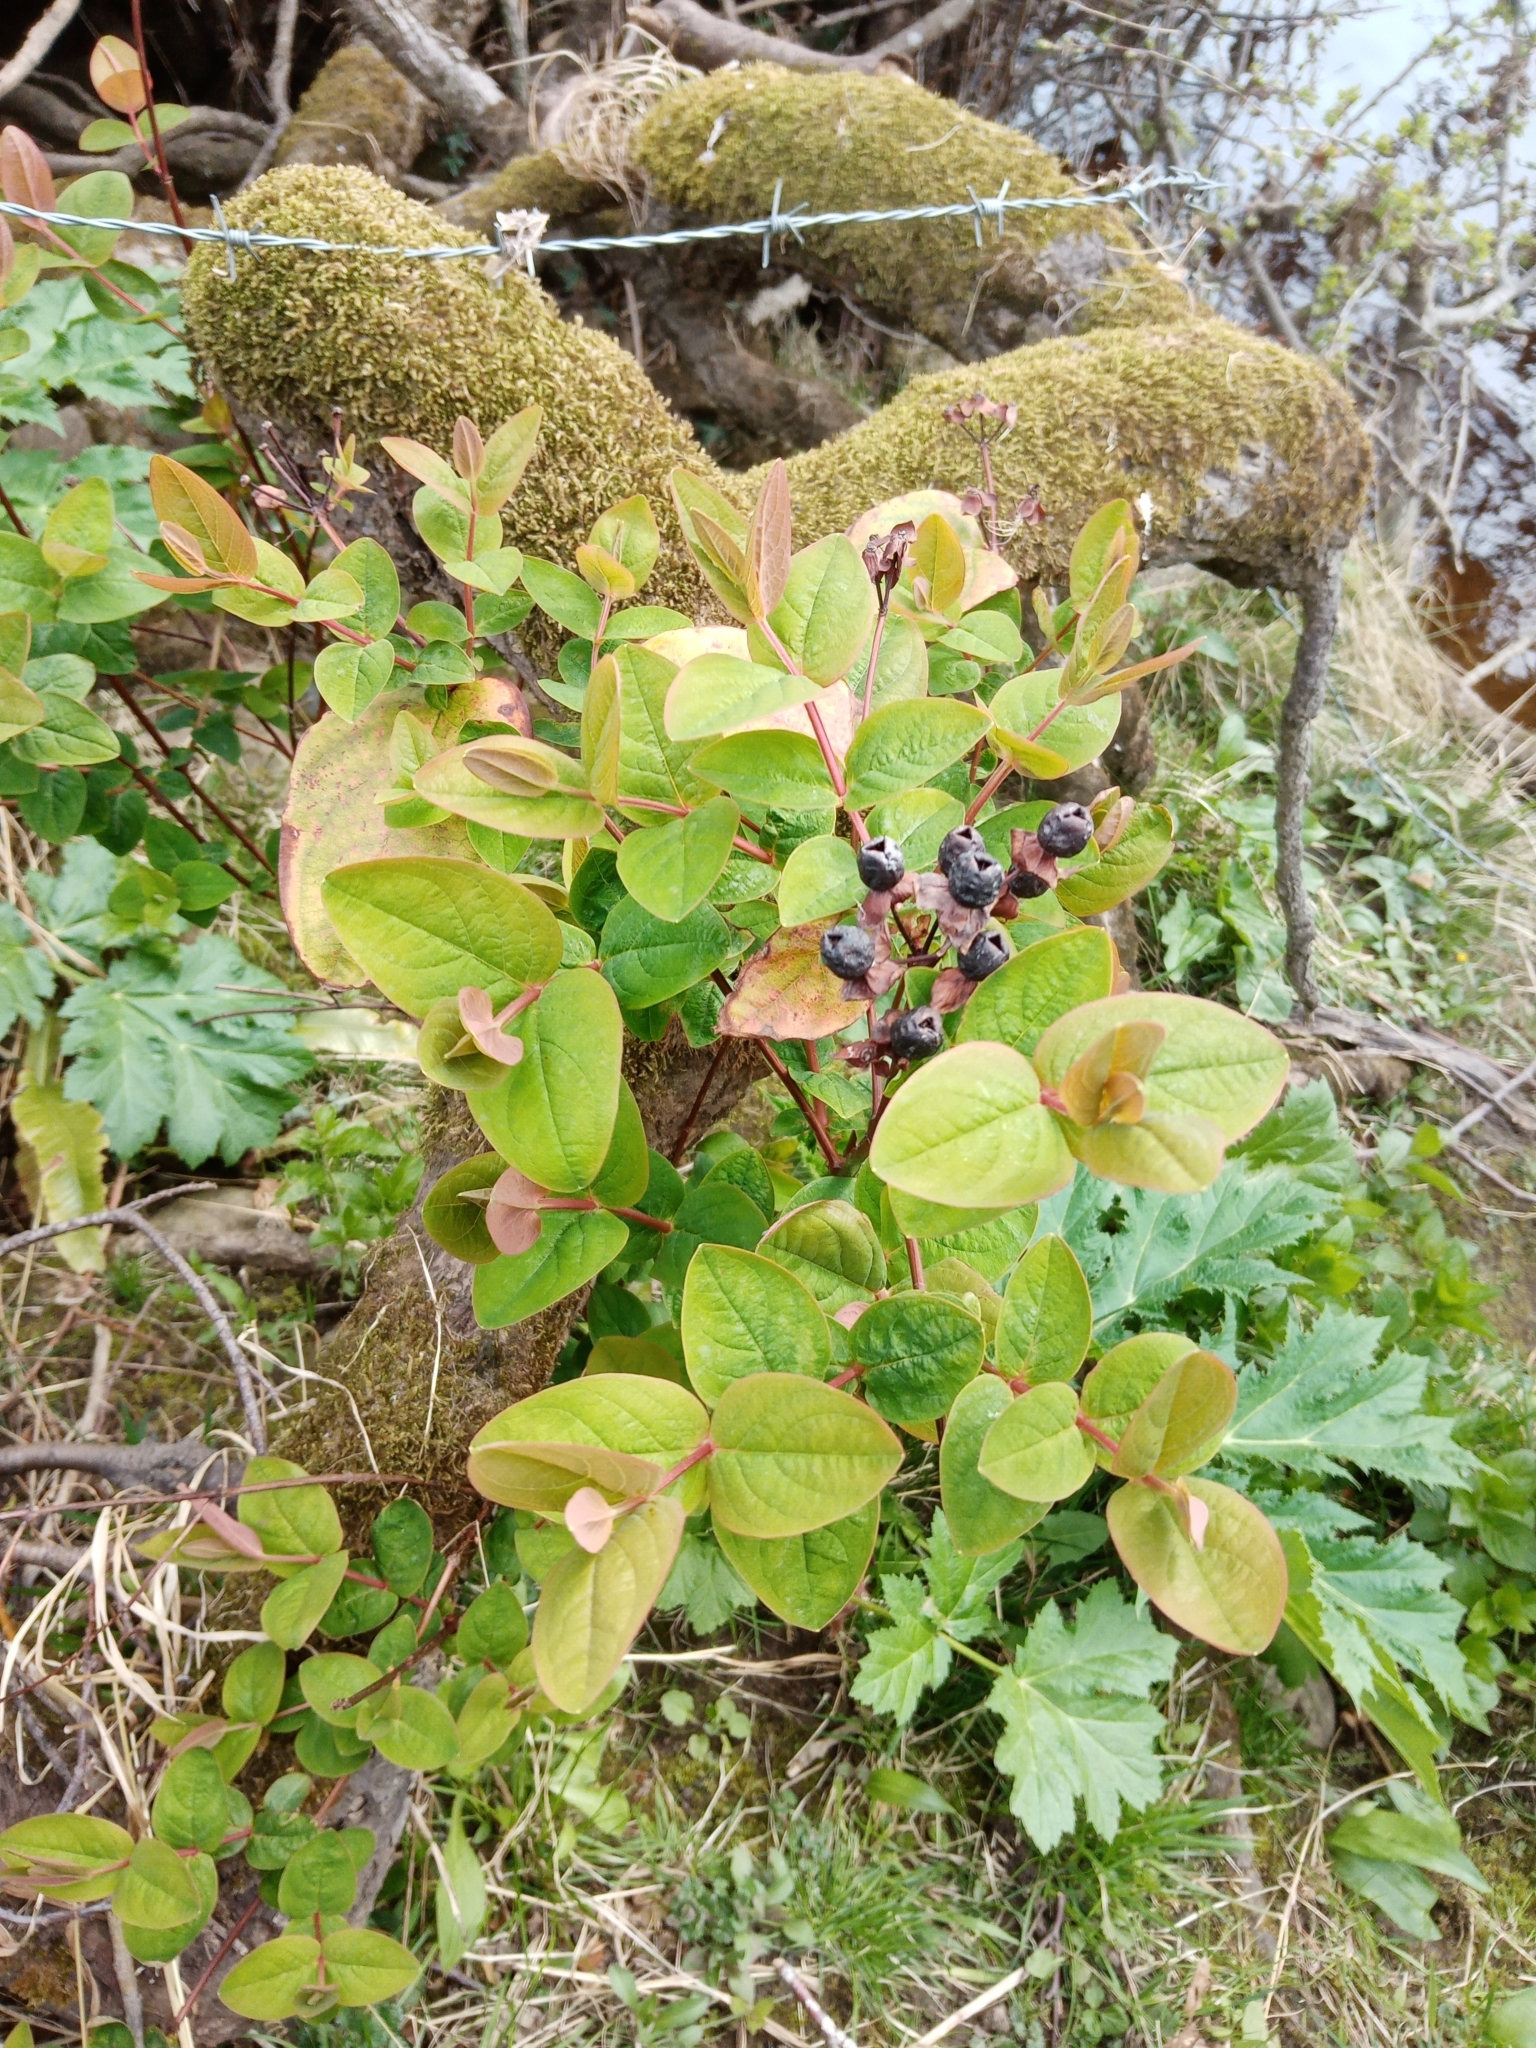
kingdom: Plantae
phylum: Tracheophyta
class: Magnoliopsida
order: Malpighiales
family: Hypericaceae
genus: Hypericum
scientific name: Hypericum androsaemum
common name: Sweet-amber
